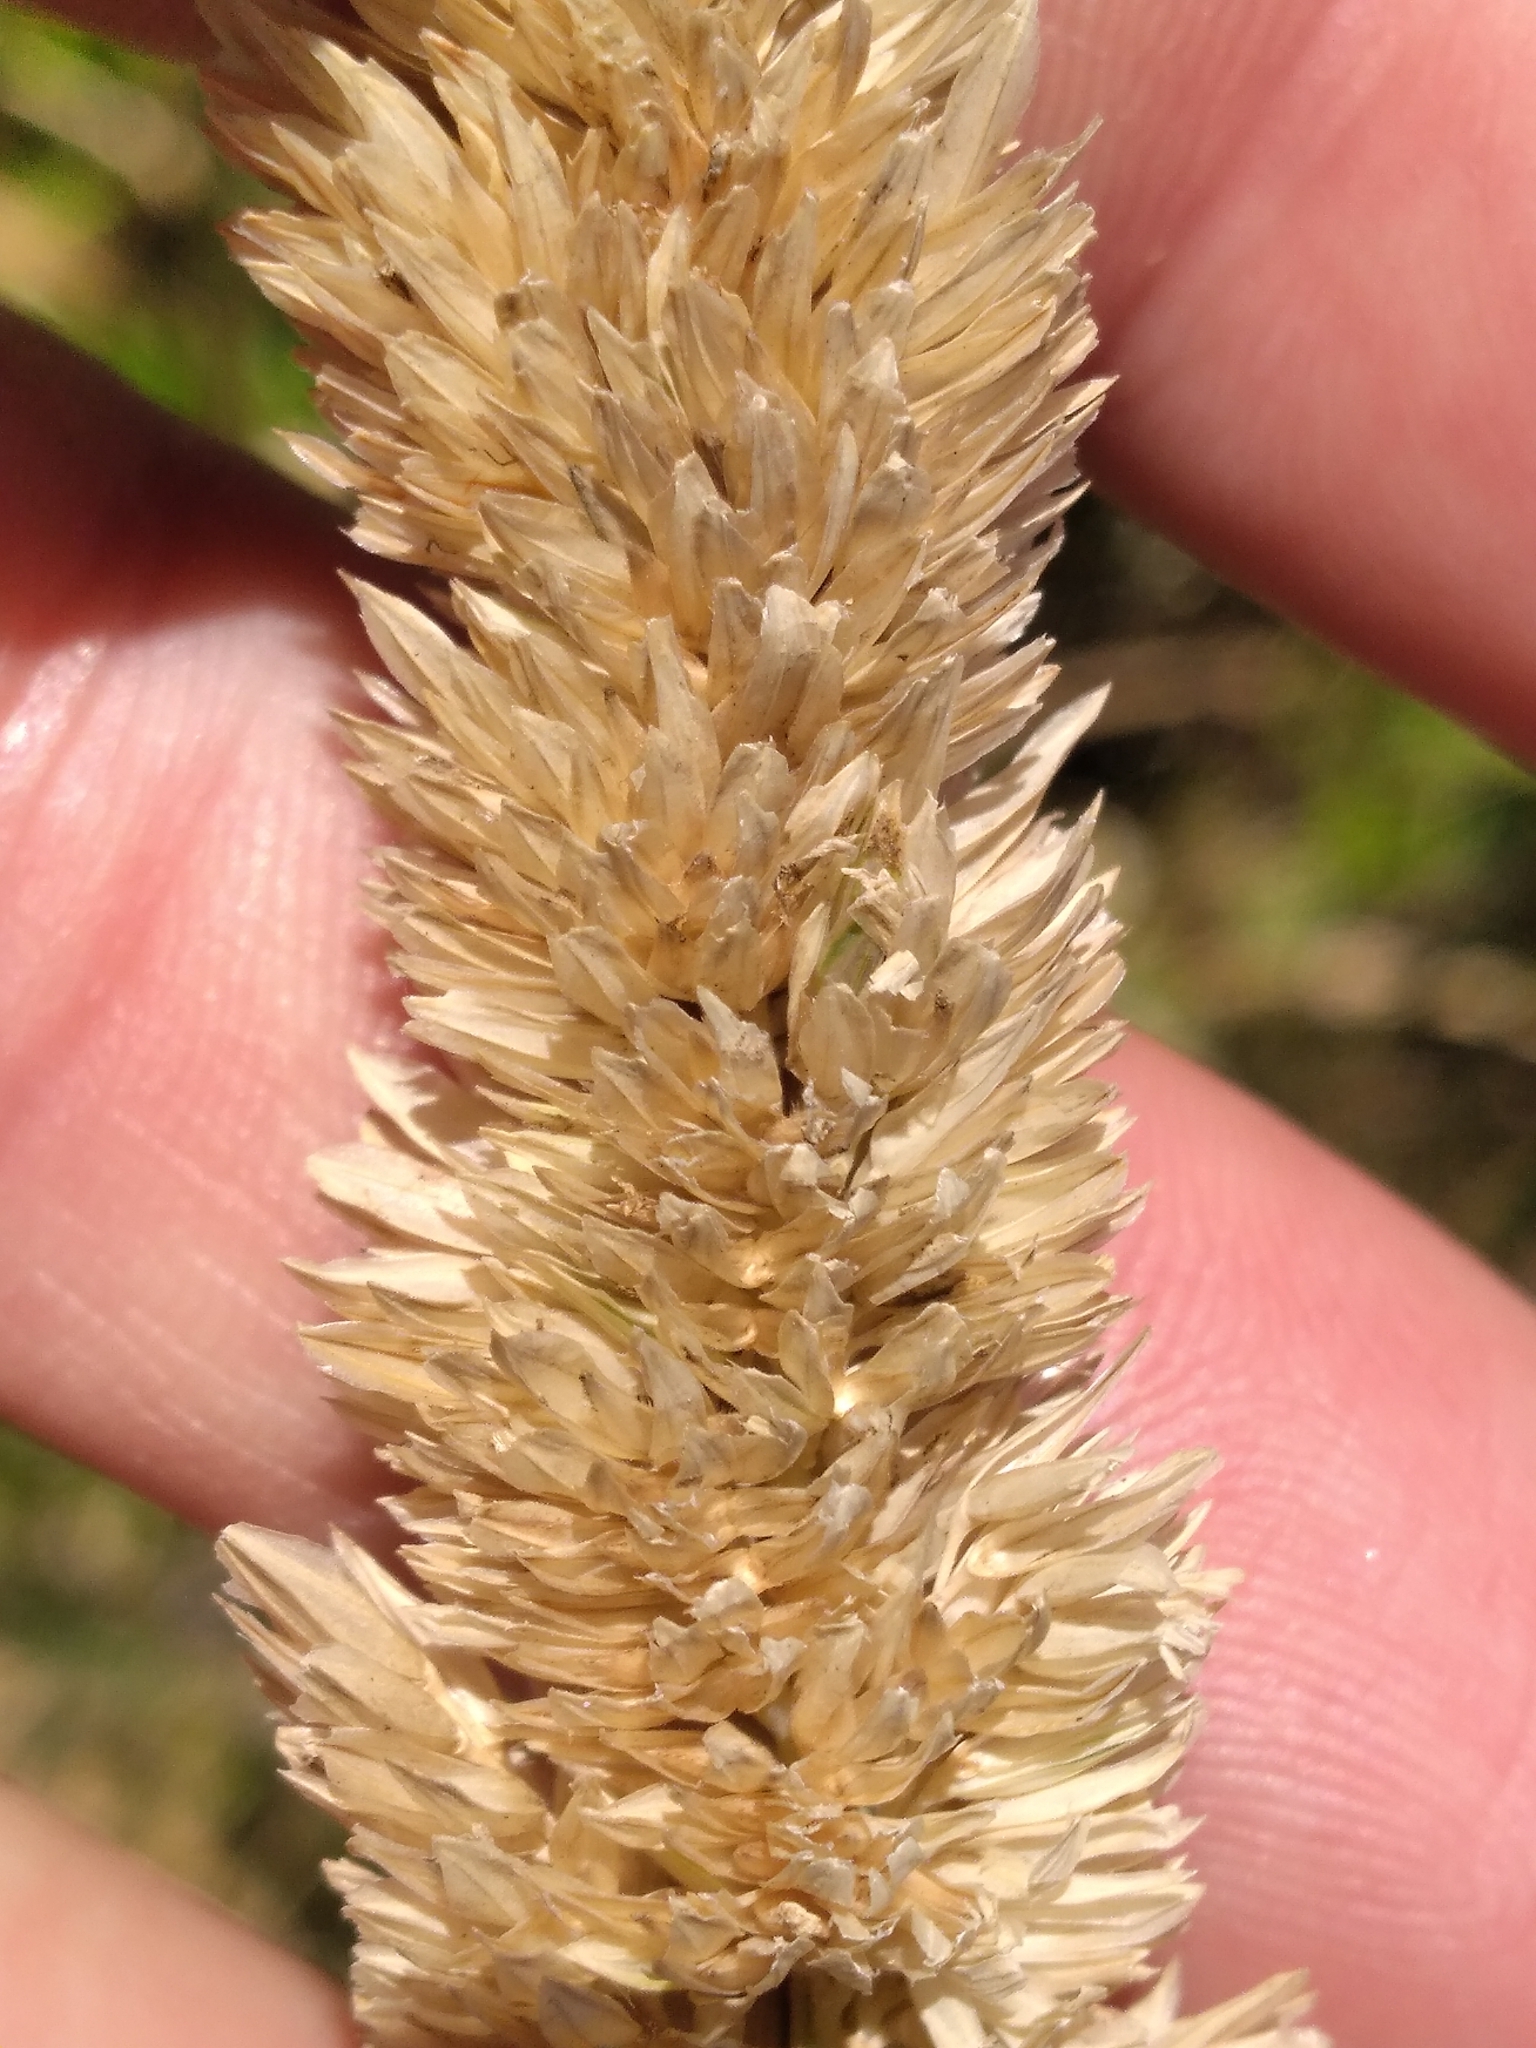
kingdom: Plantae
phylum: Tracheophyta
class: Liliopsida
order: Poales
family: Poaceae
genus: Phalaris
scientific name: Phalaris aquatica
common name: Bulbous canary-grass
